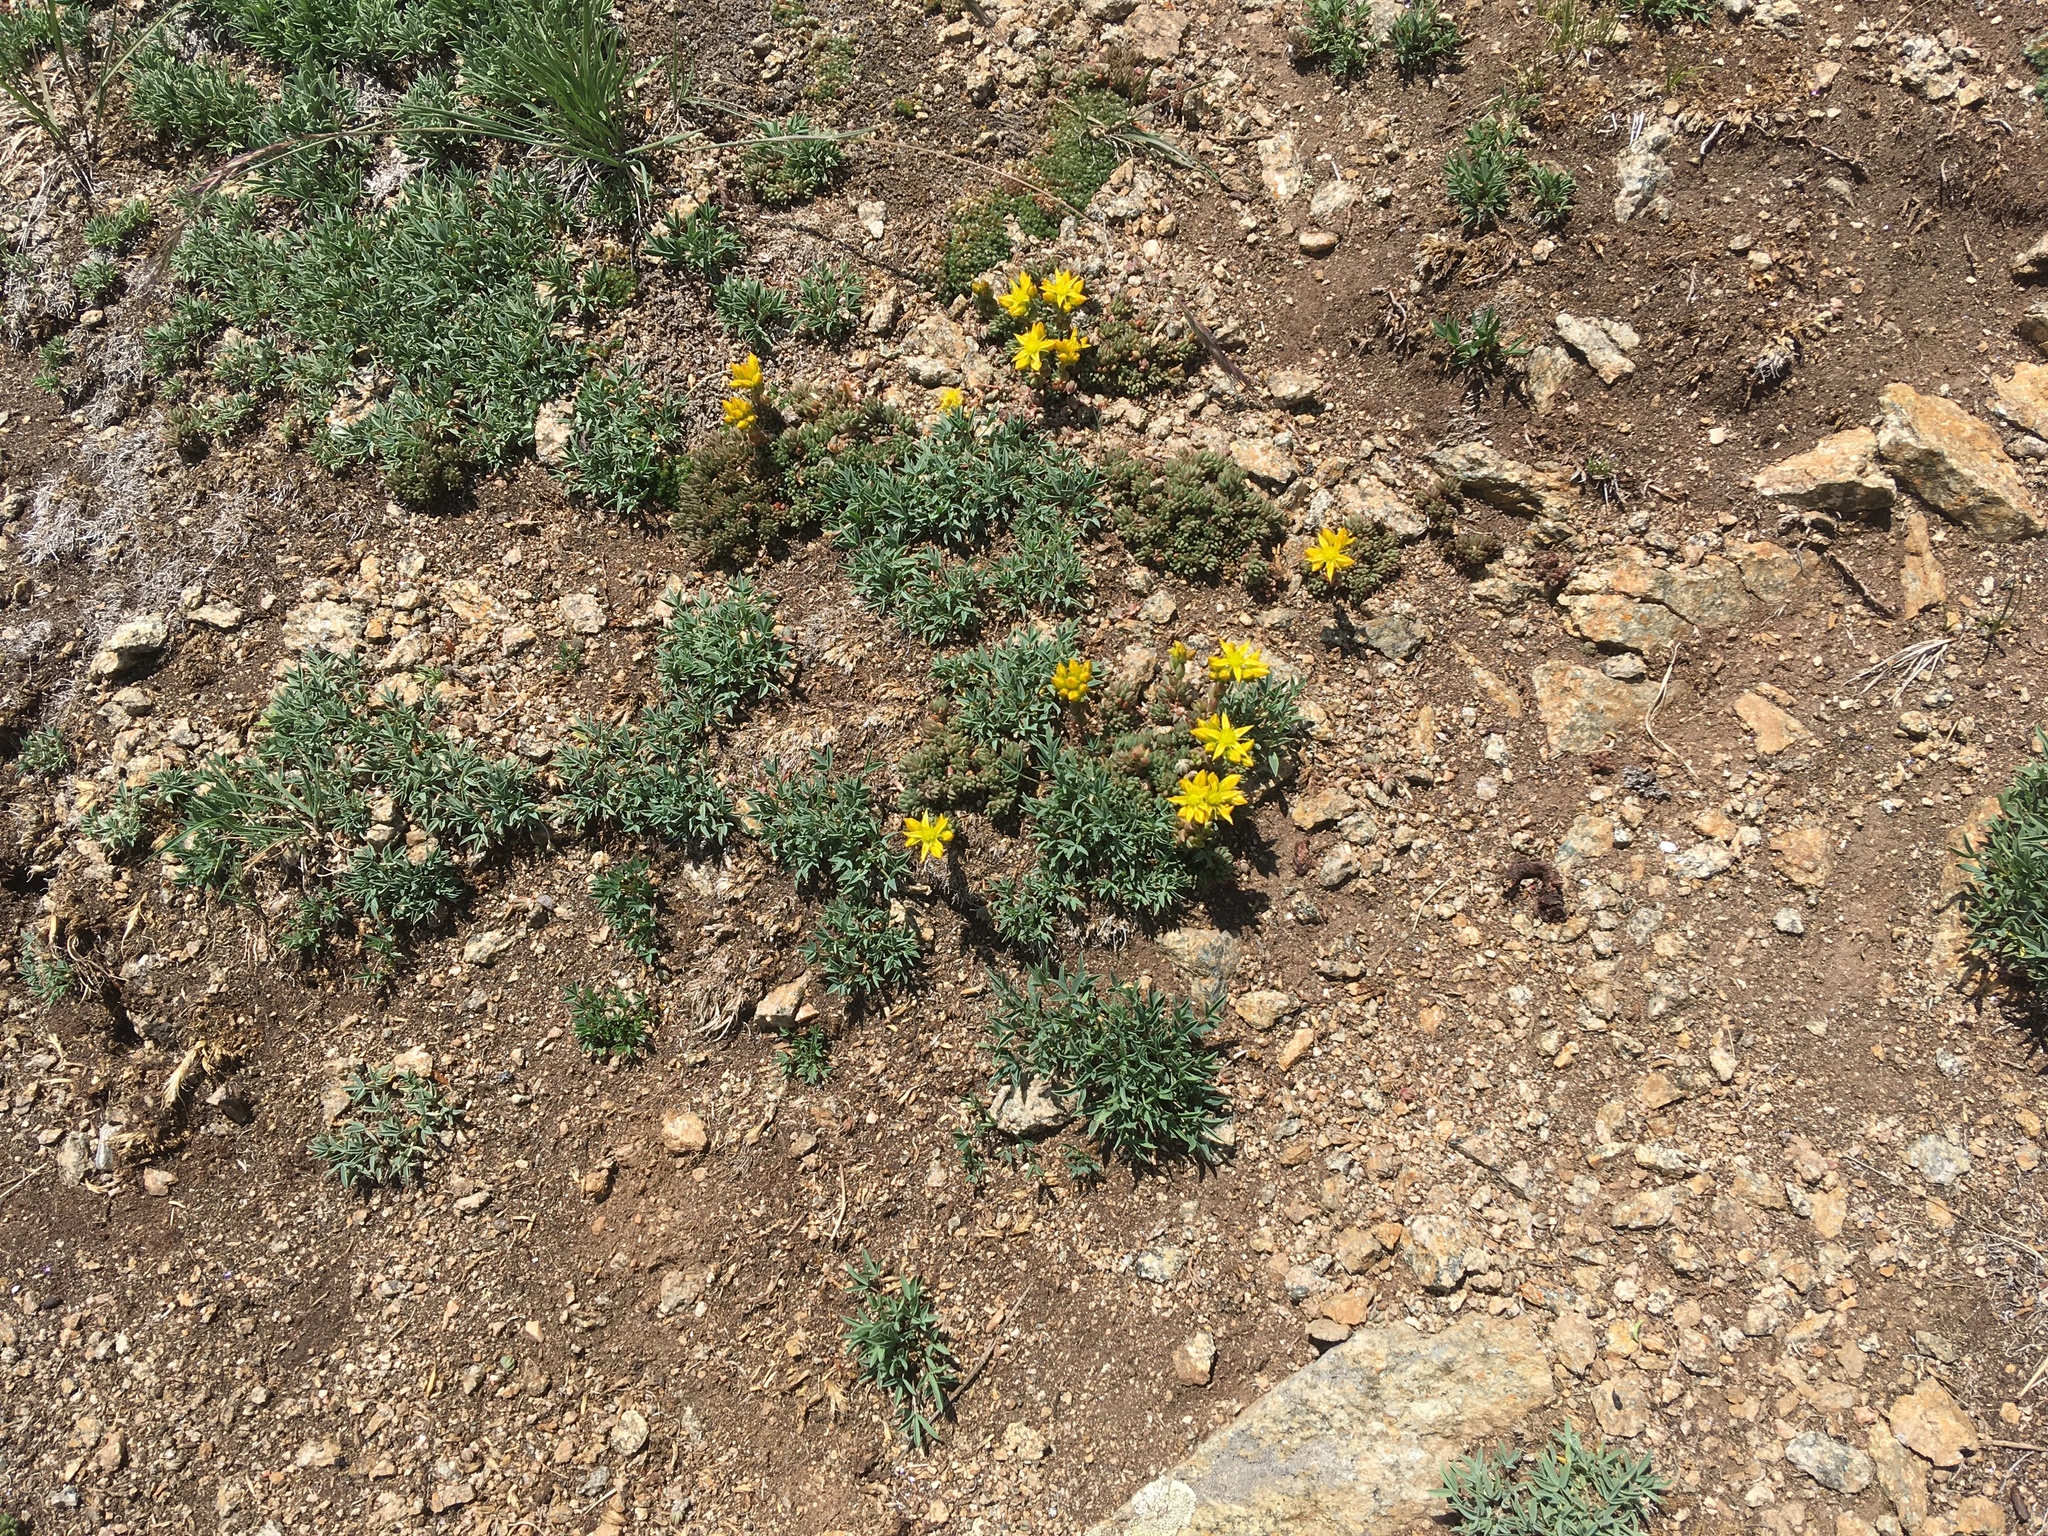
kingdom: Plantae
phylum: Tracheophyta
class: Magnoliopsida
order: Saxifragales
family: Crassulaceae
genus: Sedum
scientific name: Sedum lanceolatum
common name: Common stonecrop
